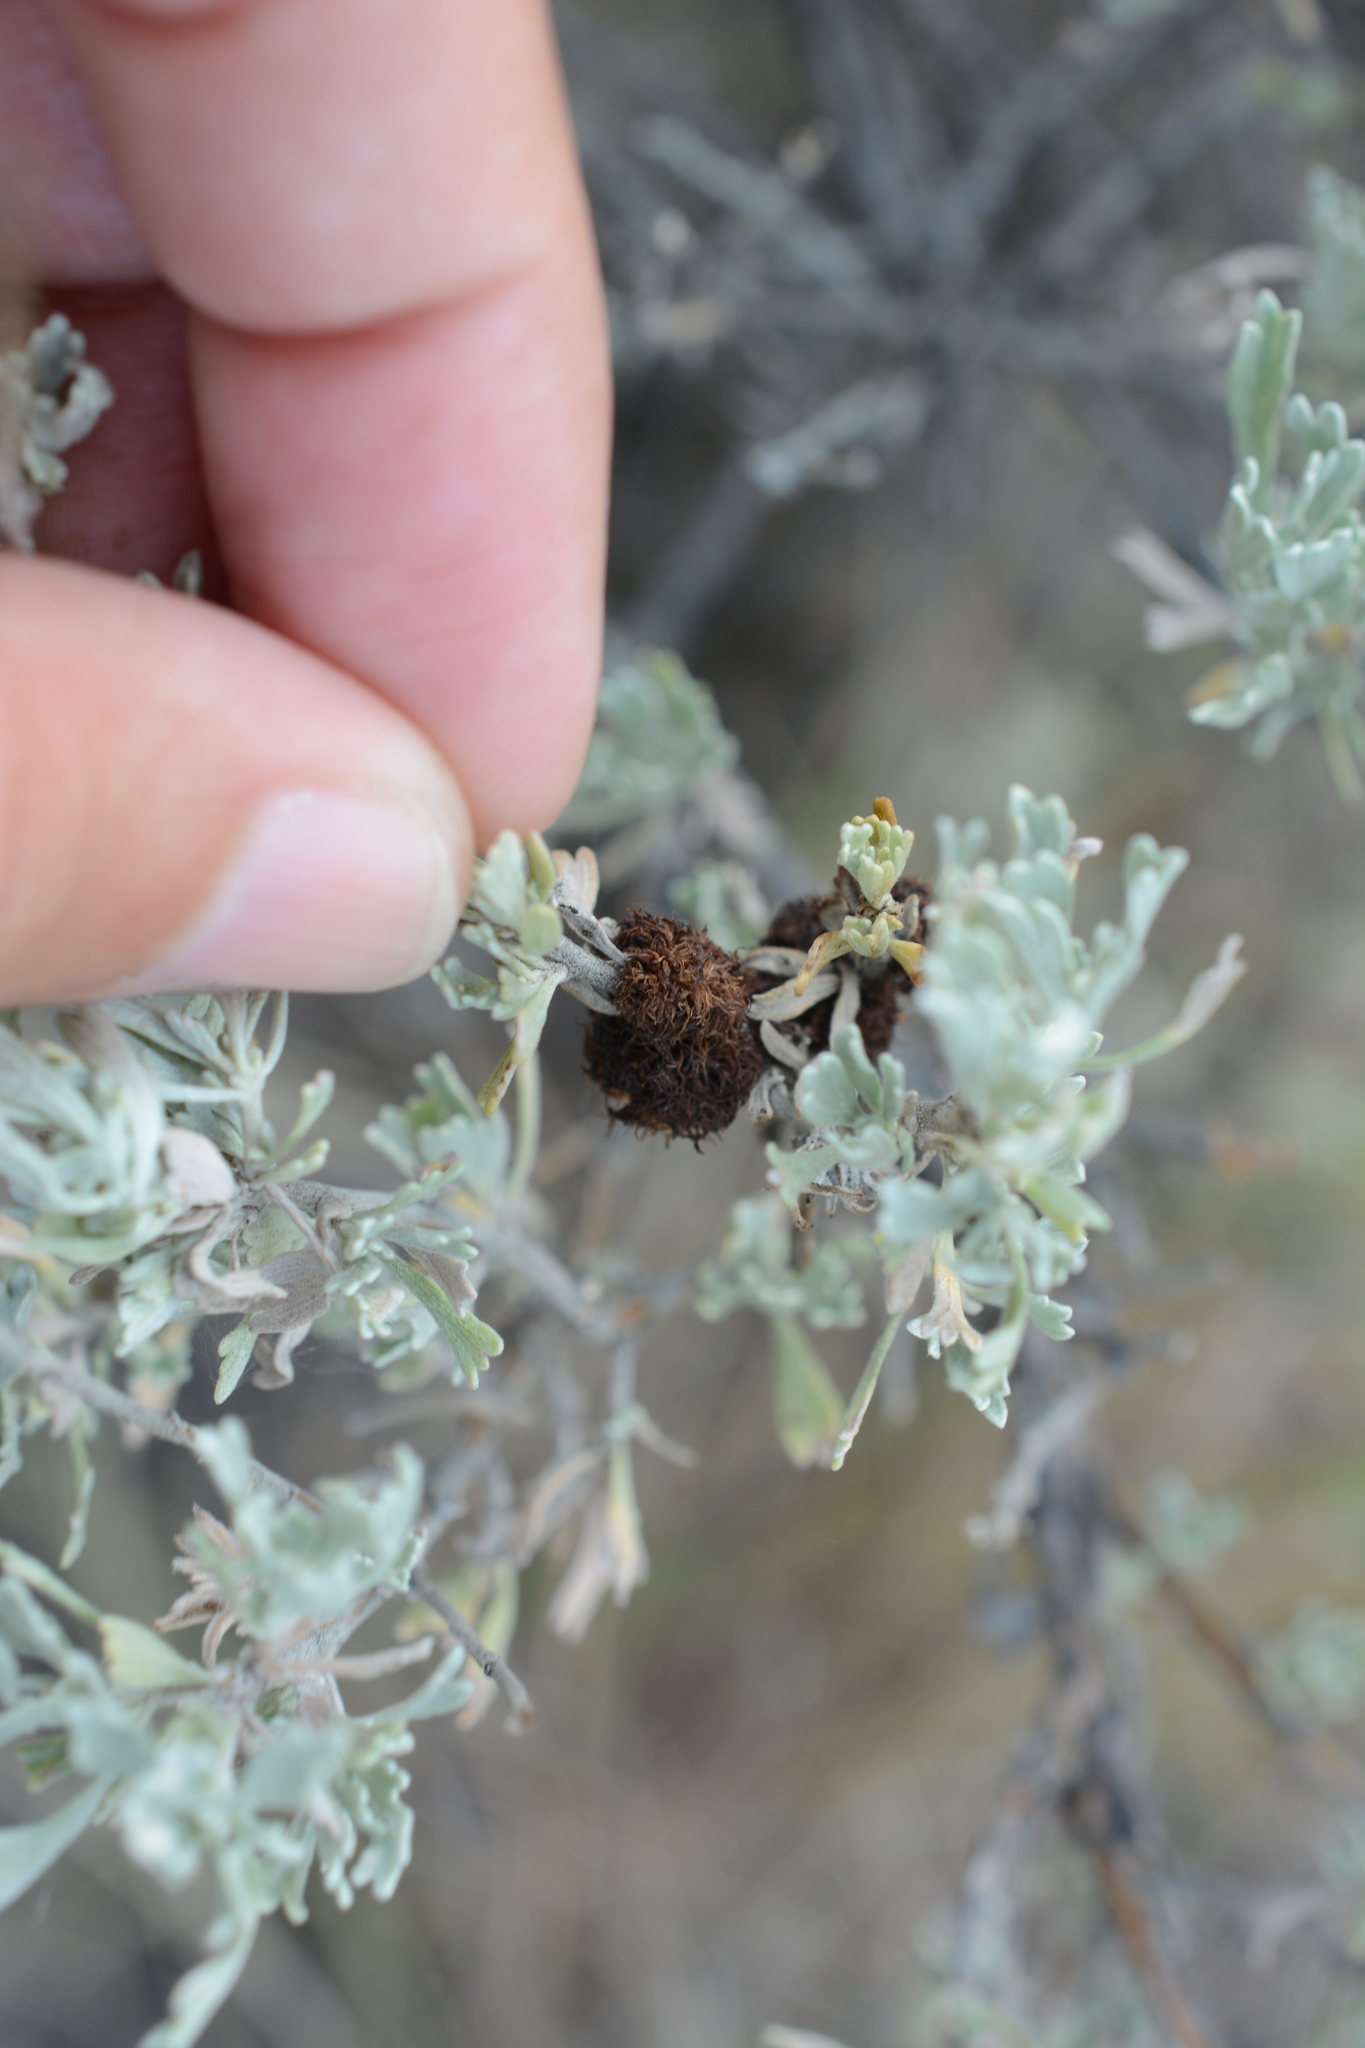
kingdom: Animalia
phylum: Arthropoda
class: Insecta
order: Diptera
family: Cecidomyiidae
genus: Rhopalomyia
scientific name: Rhopalomyia medusa
